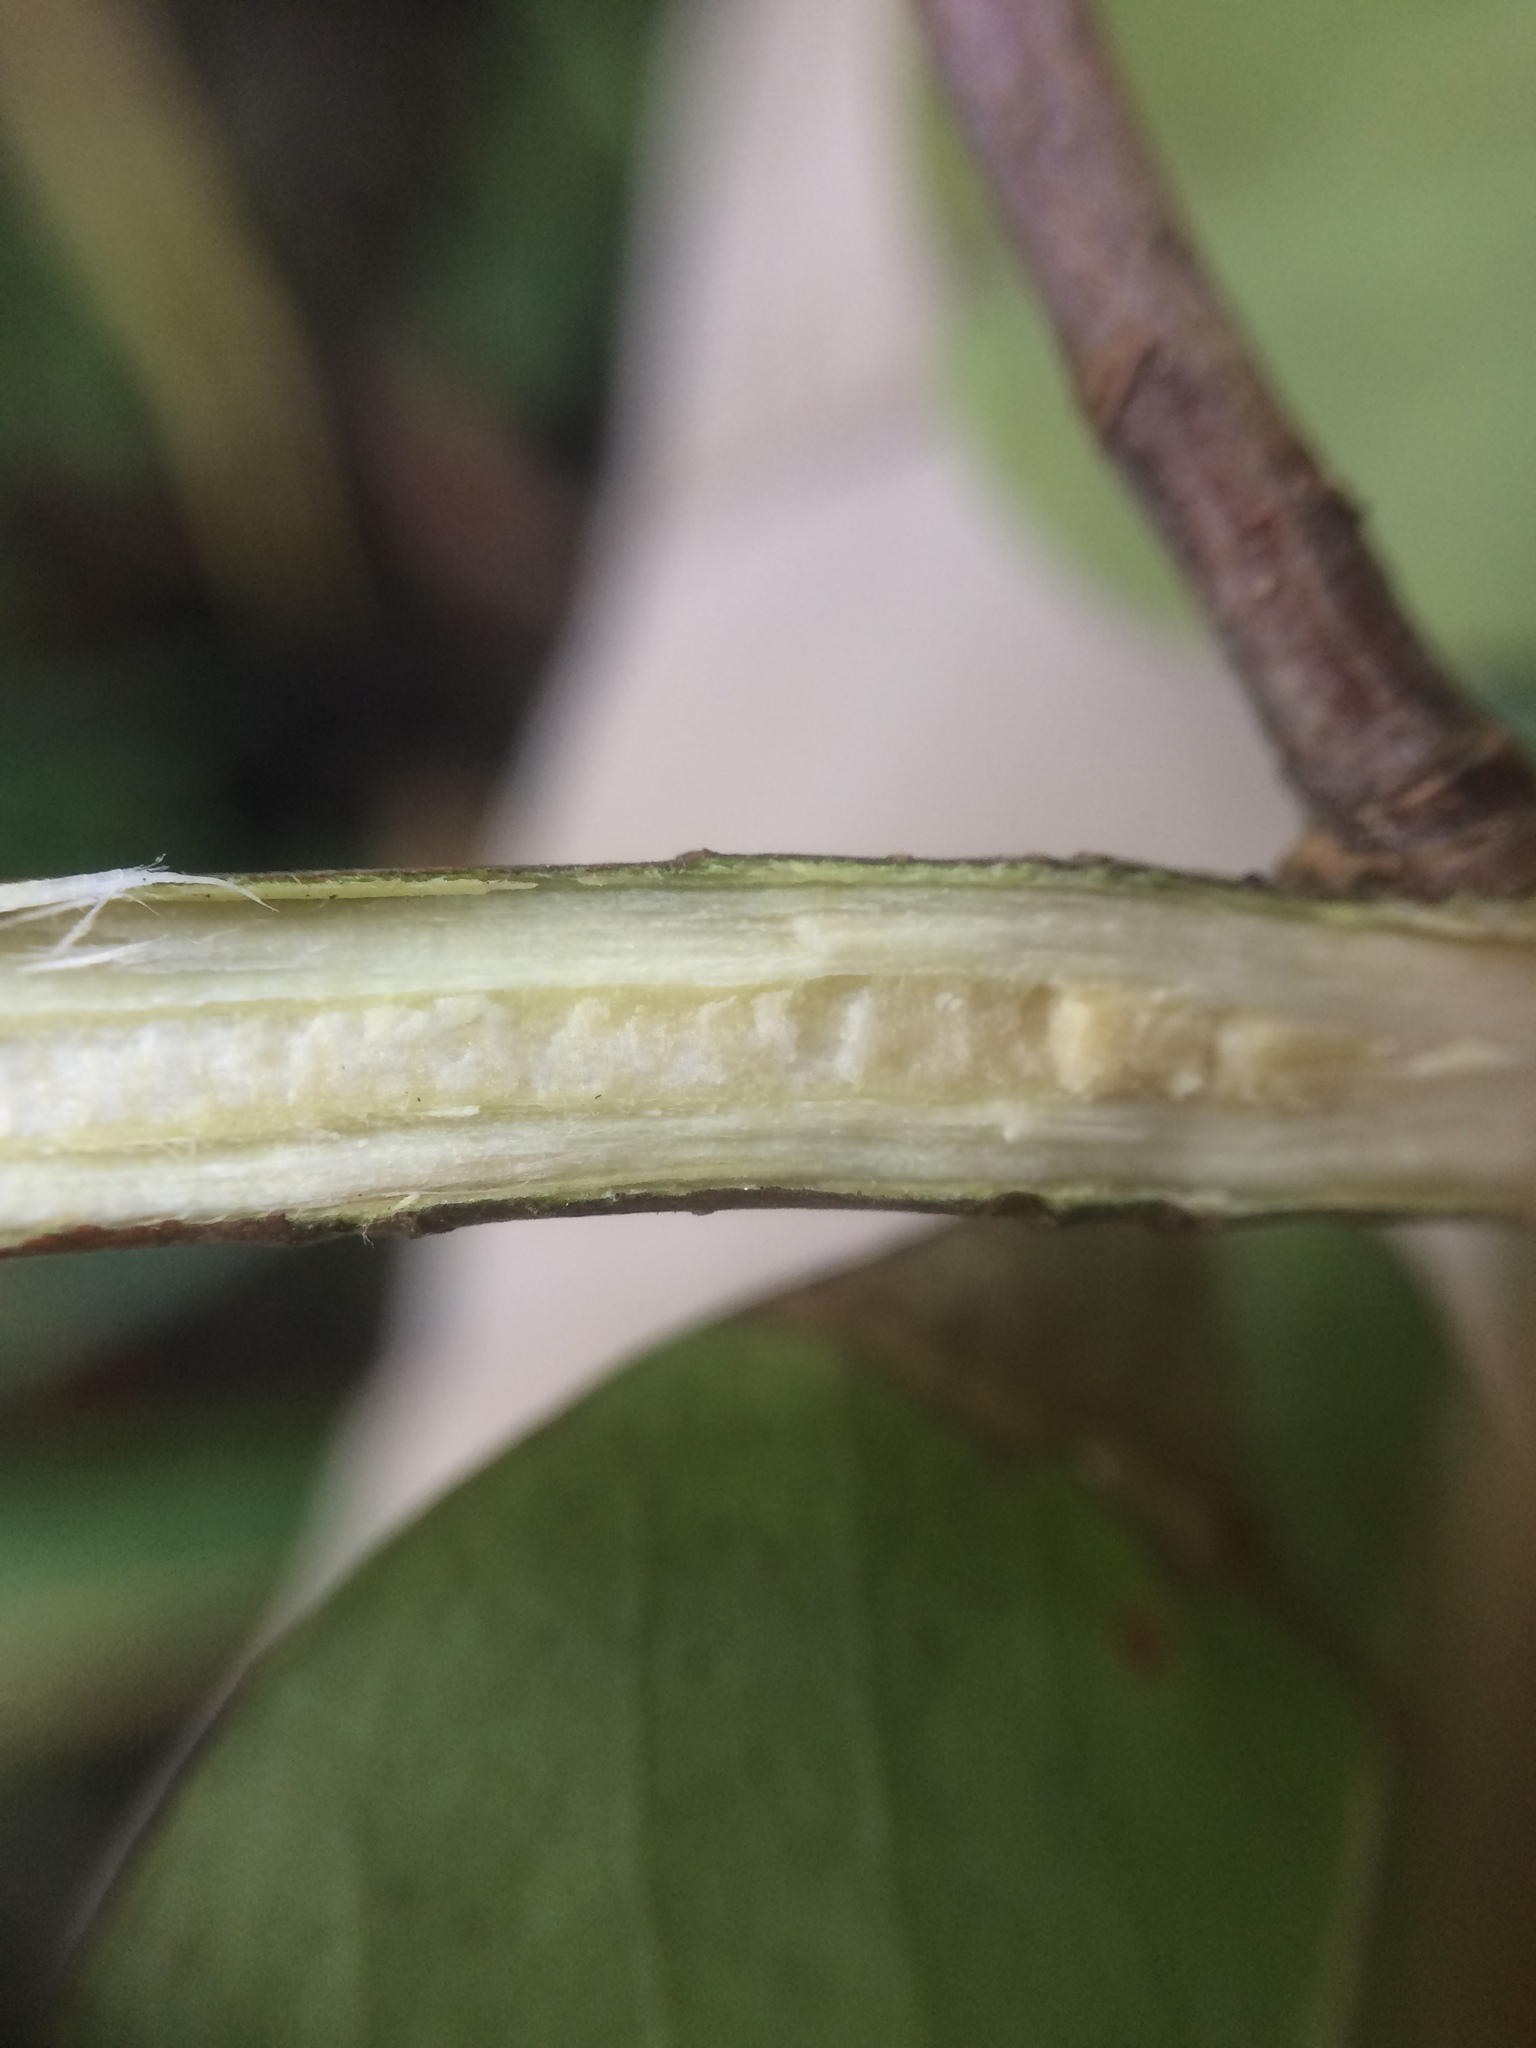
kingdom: Plantae
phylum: Tracheophyta
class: Magnoliopsida
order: Cornales
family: Nyssaceae
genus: Nyssa
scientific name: Nyssa ogeche
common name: Ogeechee tupelo
